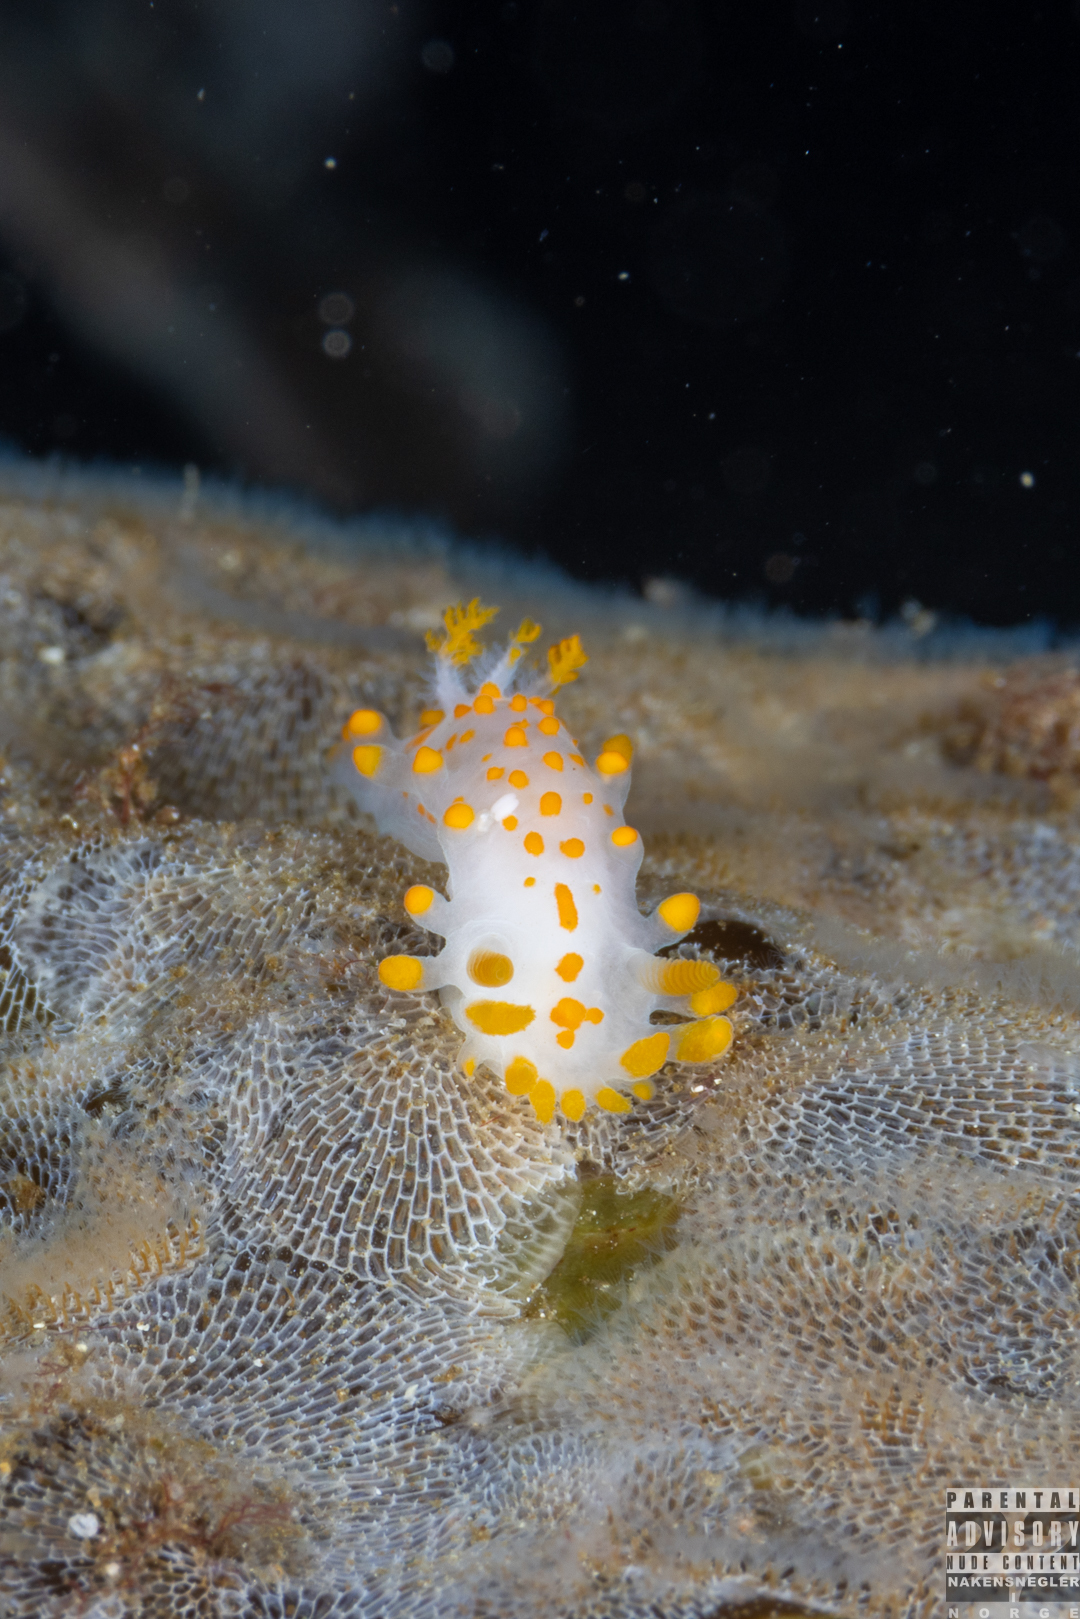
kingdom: Animalia
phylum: Mollusca
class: Gastropoda
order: Nudibranchia
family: Polyceridae
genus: Limacia
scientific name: Limacia clavigera
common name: Orange-clubbed sea slug
